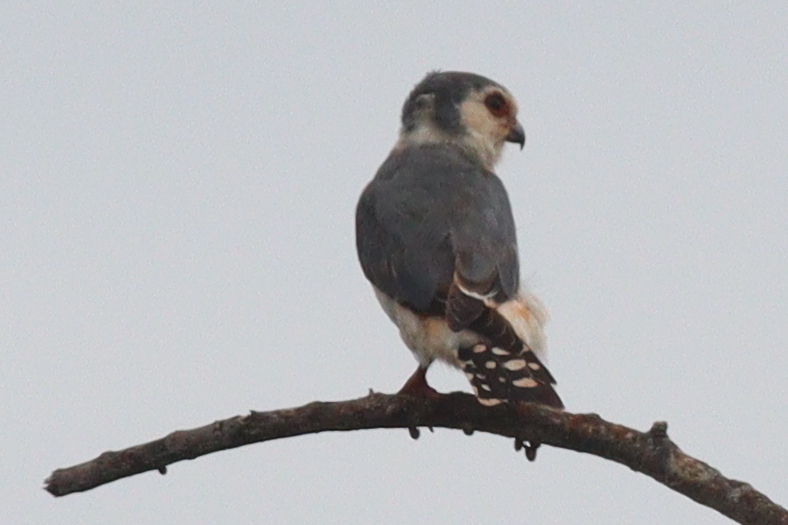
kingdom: Animalia
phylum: Chordata
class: Aves
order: Falconiformes
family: Falconidae
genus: Polihierax
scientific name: Polihierax semitorquatus
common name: Pygmy falcon
